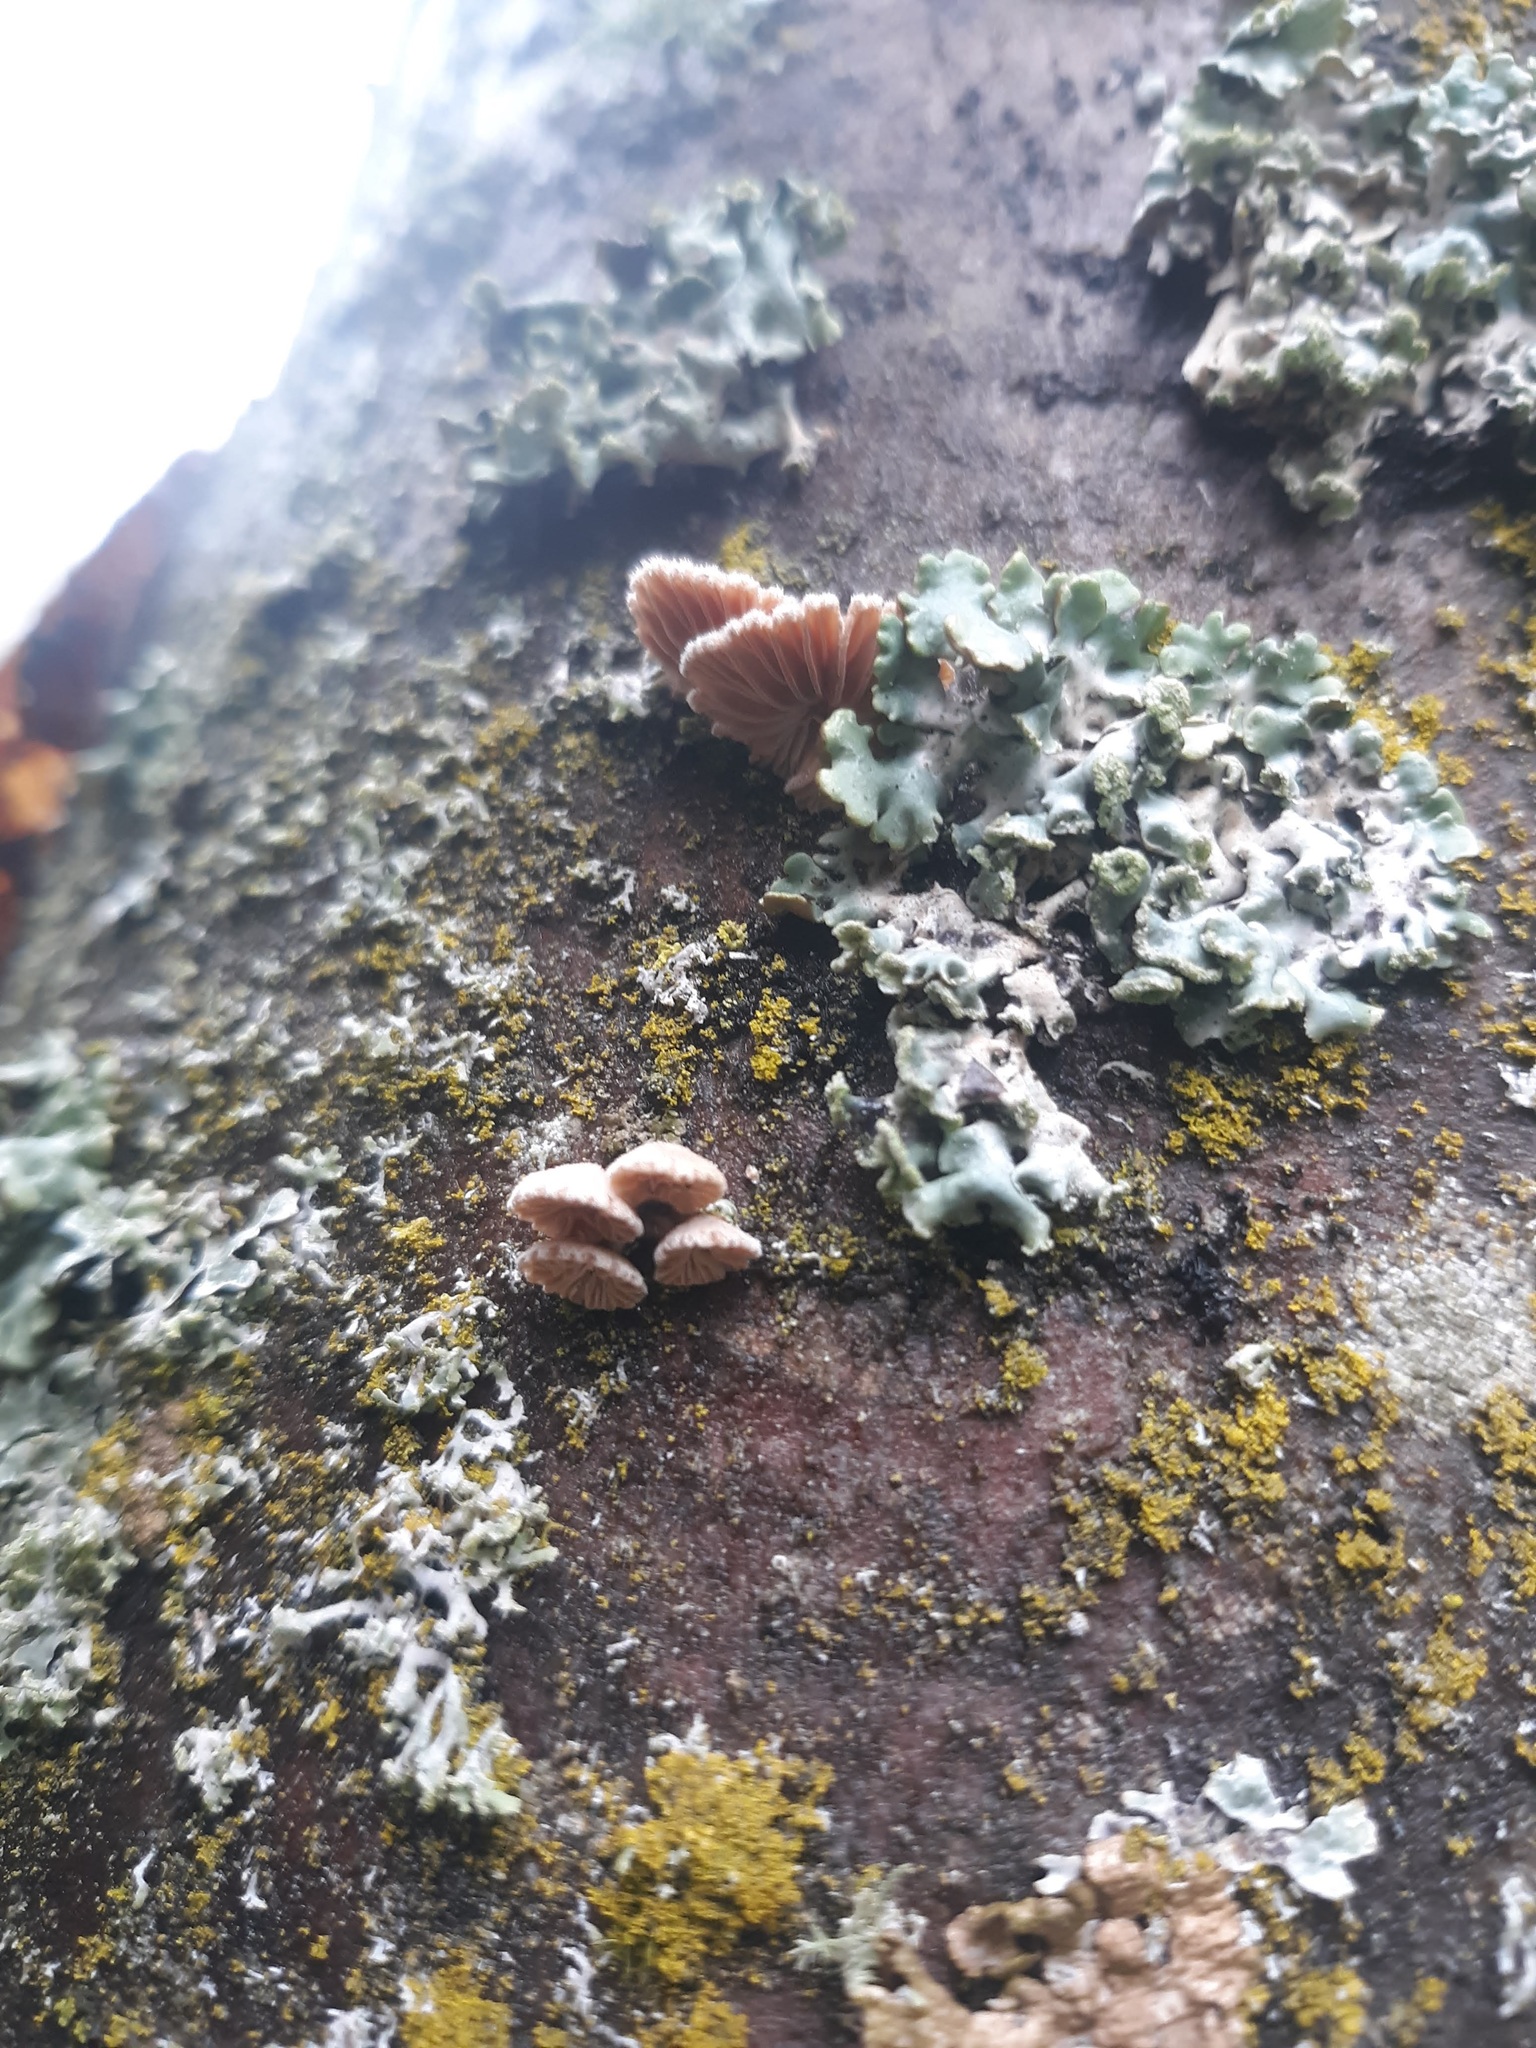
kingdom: Fungi
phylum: Basidiomycota
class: Agaricomycetes
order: Agaricales
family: Schizophyllaceae
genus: Schizophyllum
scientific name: Schizophyllum commune
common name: Common porecrust
